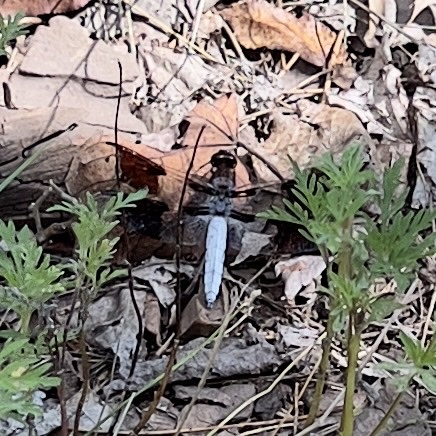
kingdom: Animalia
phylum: Arthropoda
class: Insecta
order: Odonata
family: Libellulidae
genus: Plathemis
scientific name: Plathemis lydia
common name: Common whitetail
